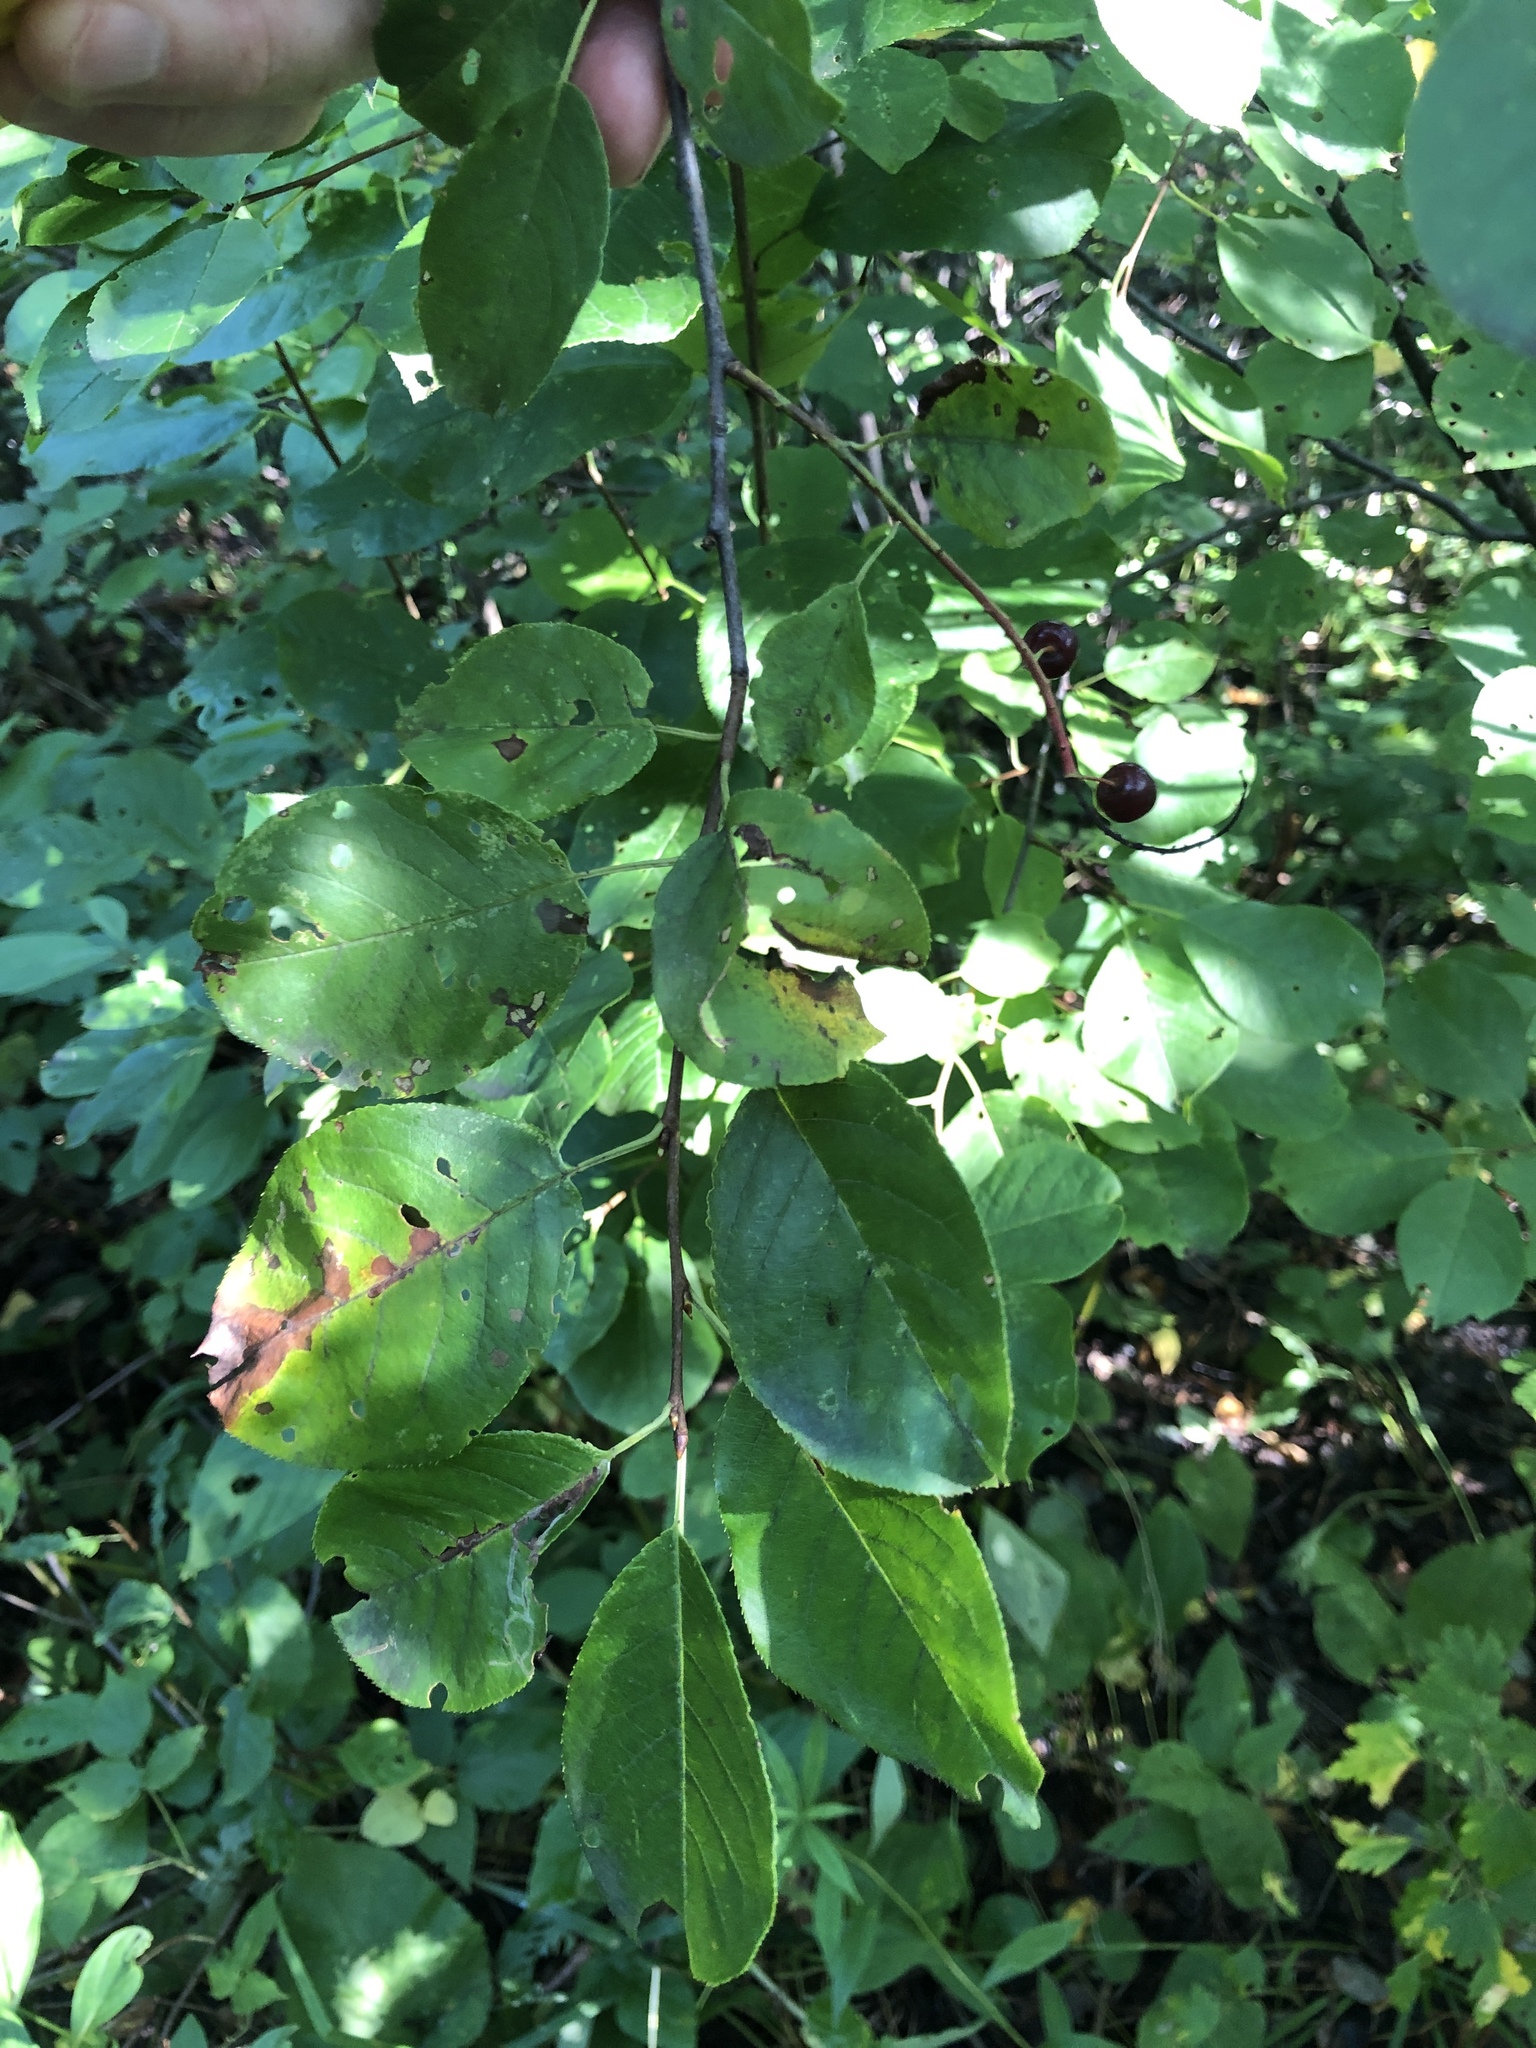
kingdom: Plantae
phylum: Tracheophyta
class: Magnoliopsida
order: Rosales
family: Rosaceae
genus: Prunus
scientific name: Prunus virginiana
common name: Chokecherry
